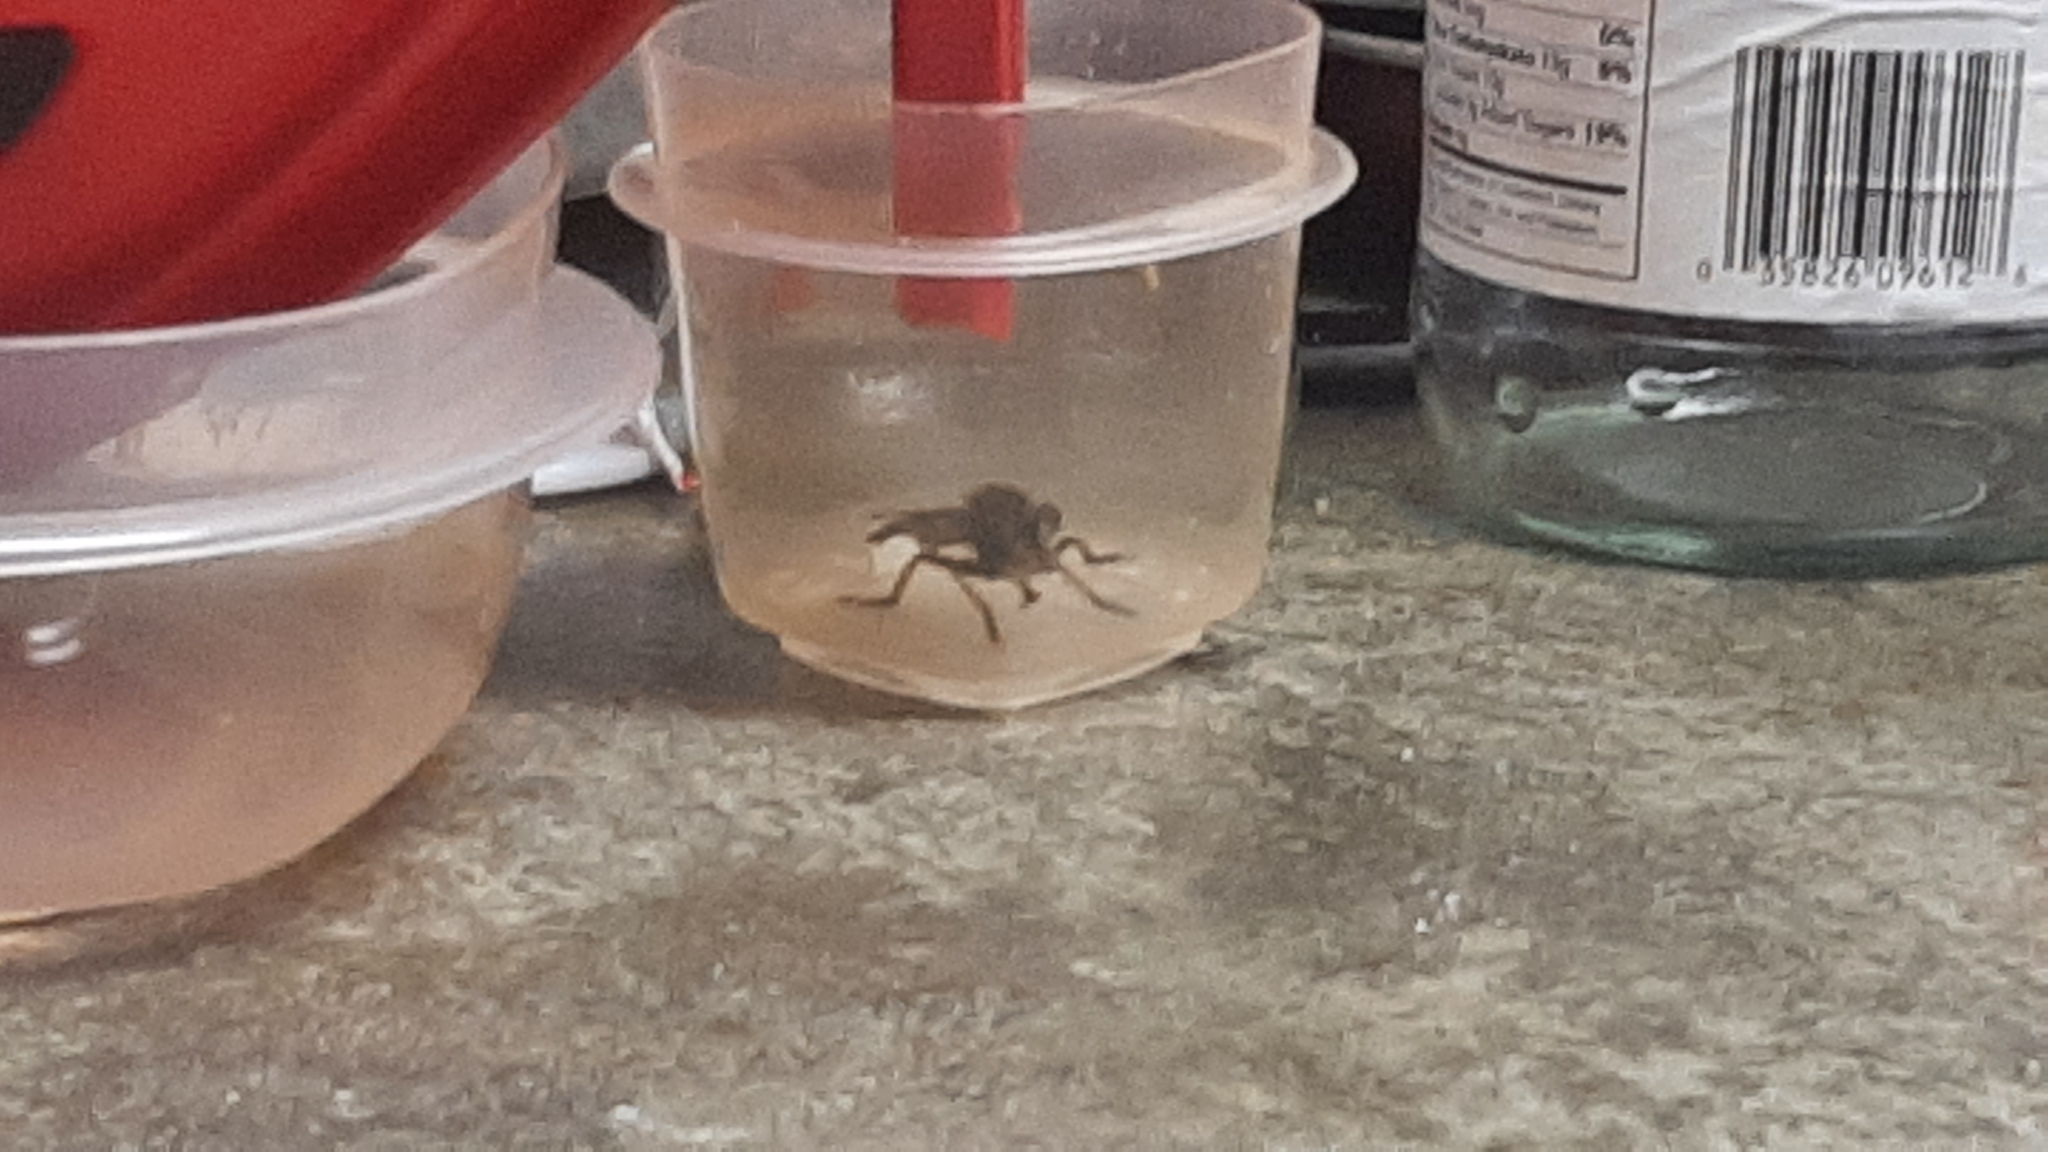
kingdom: Animalia
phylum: Arthropoda
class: Insecta
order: Diptera
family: Asilidae
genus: Promachus
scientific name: Promachus rufipes
